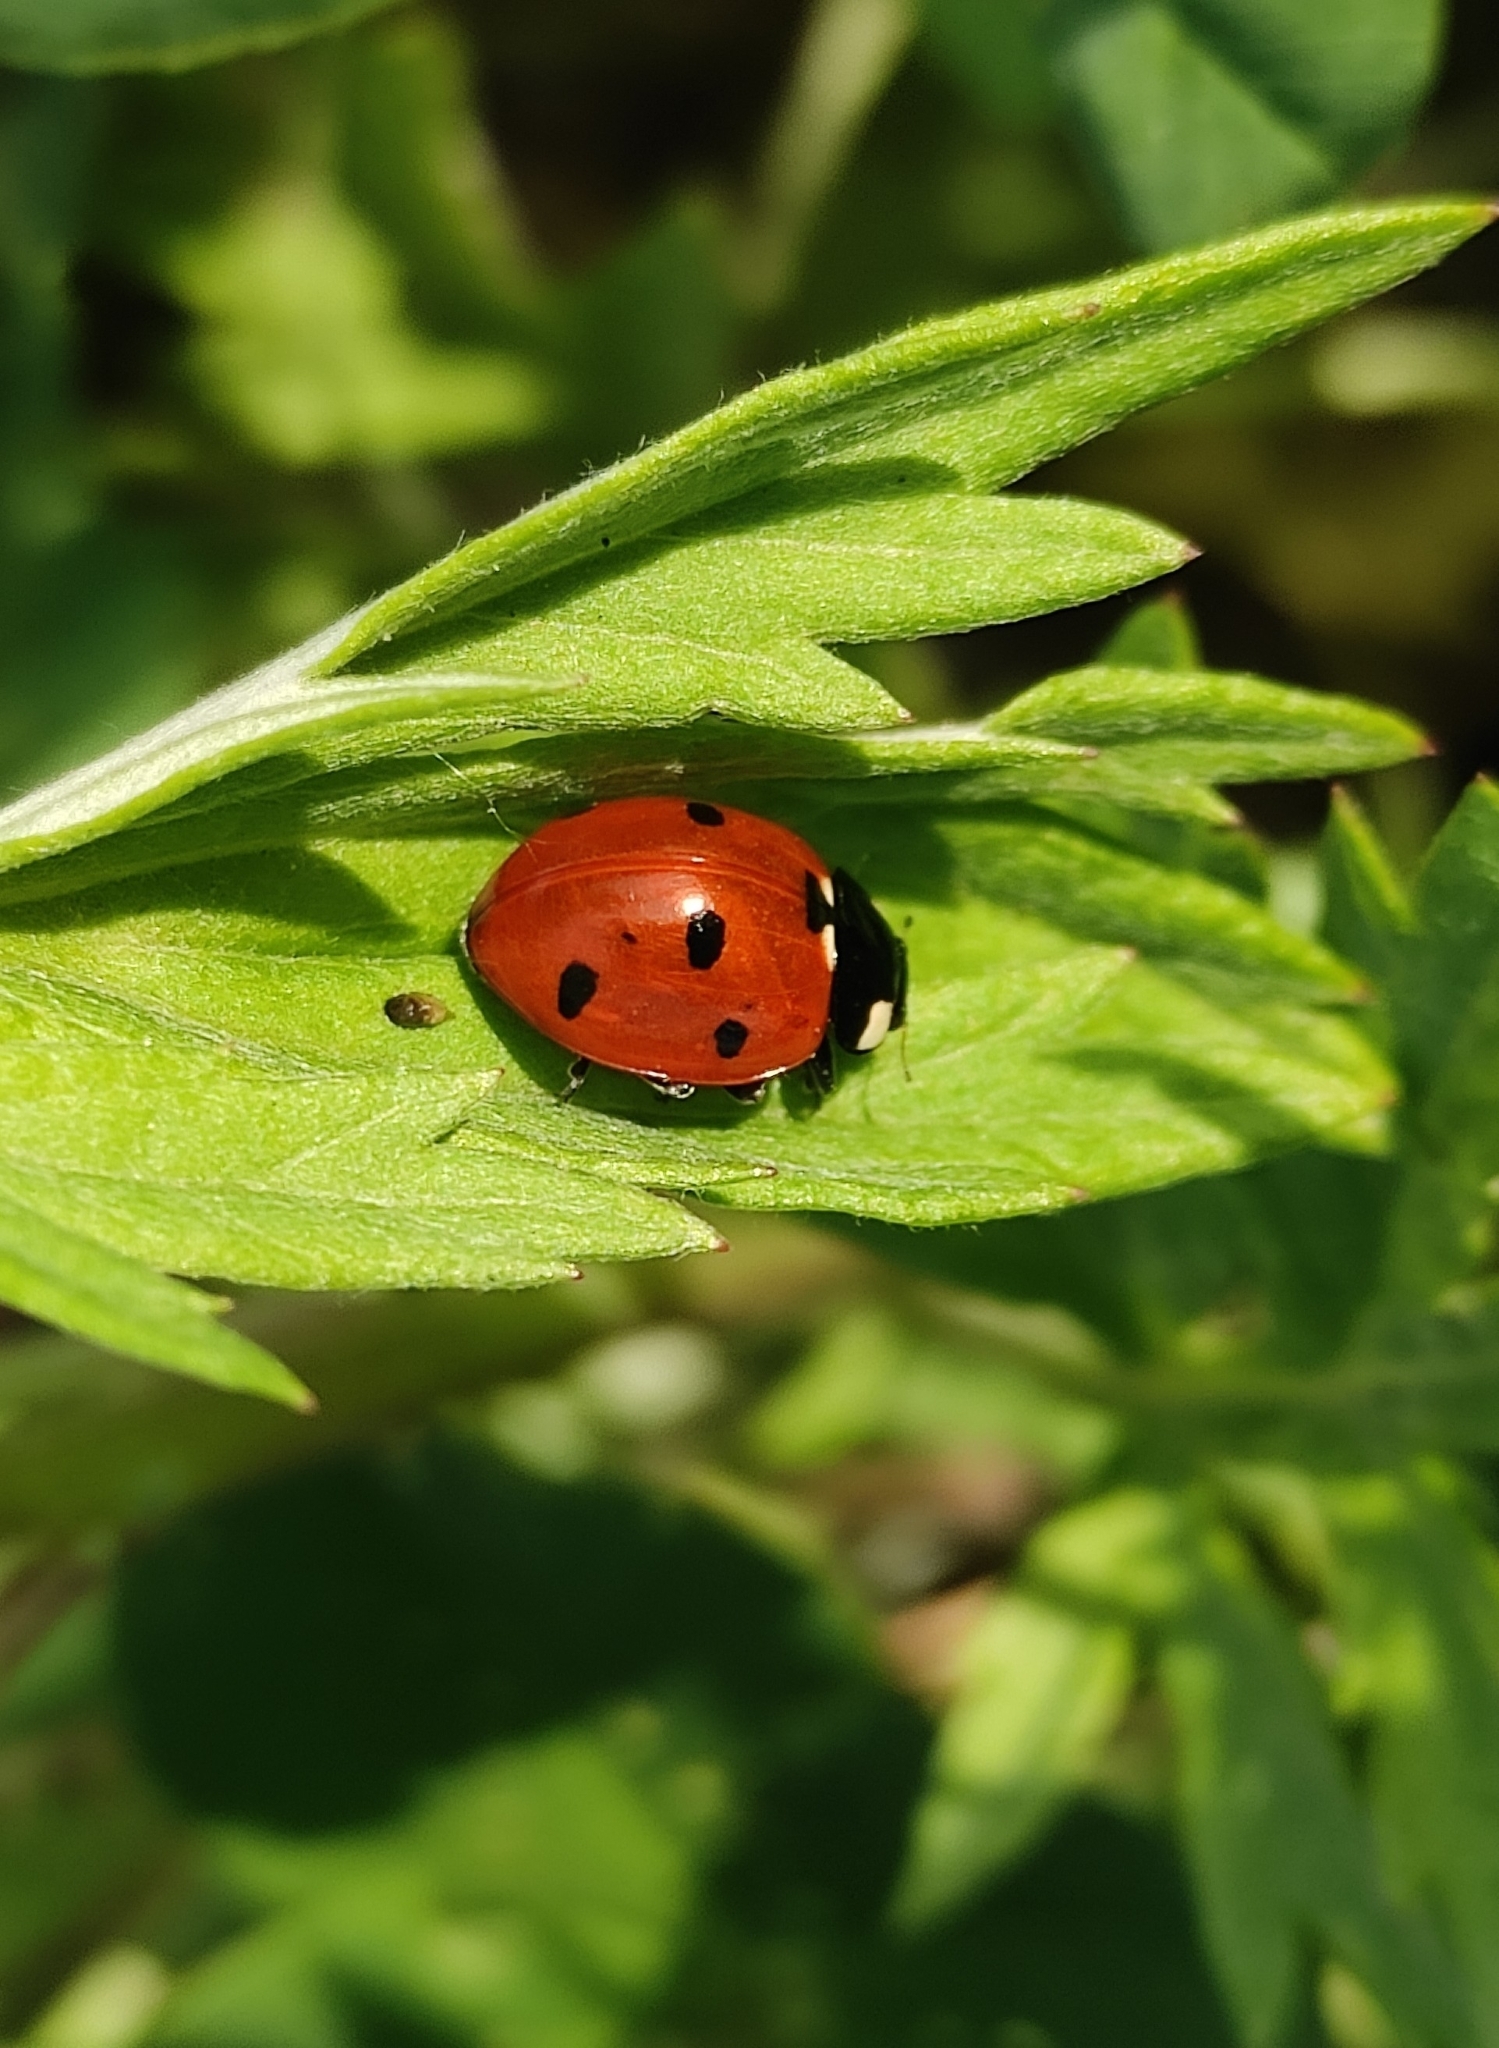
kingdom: Animalia
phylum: Arthropoda
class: Insecta
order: Coleoptera
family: Coccinellidae
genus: Coccinella
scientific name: Coccinella septempunctata
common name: Sevenspotted lady beetle
